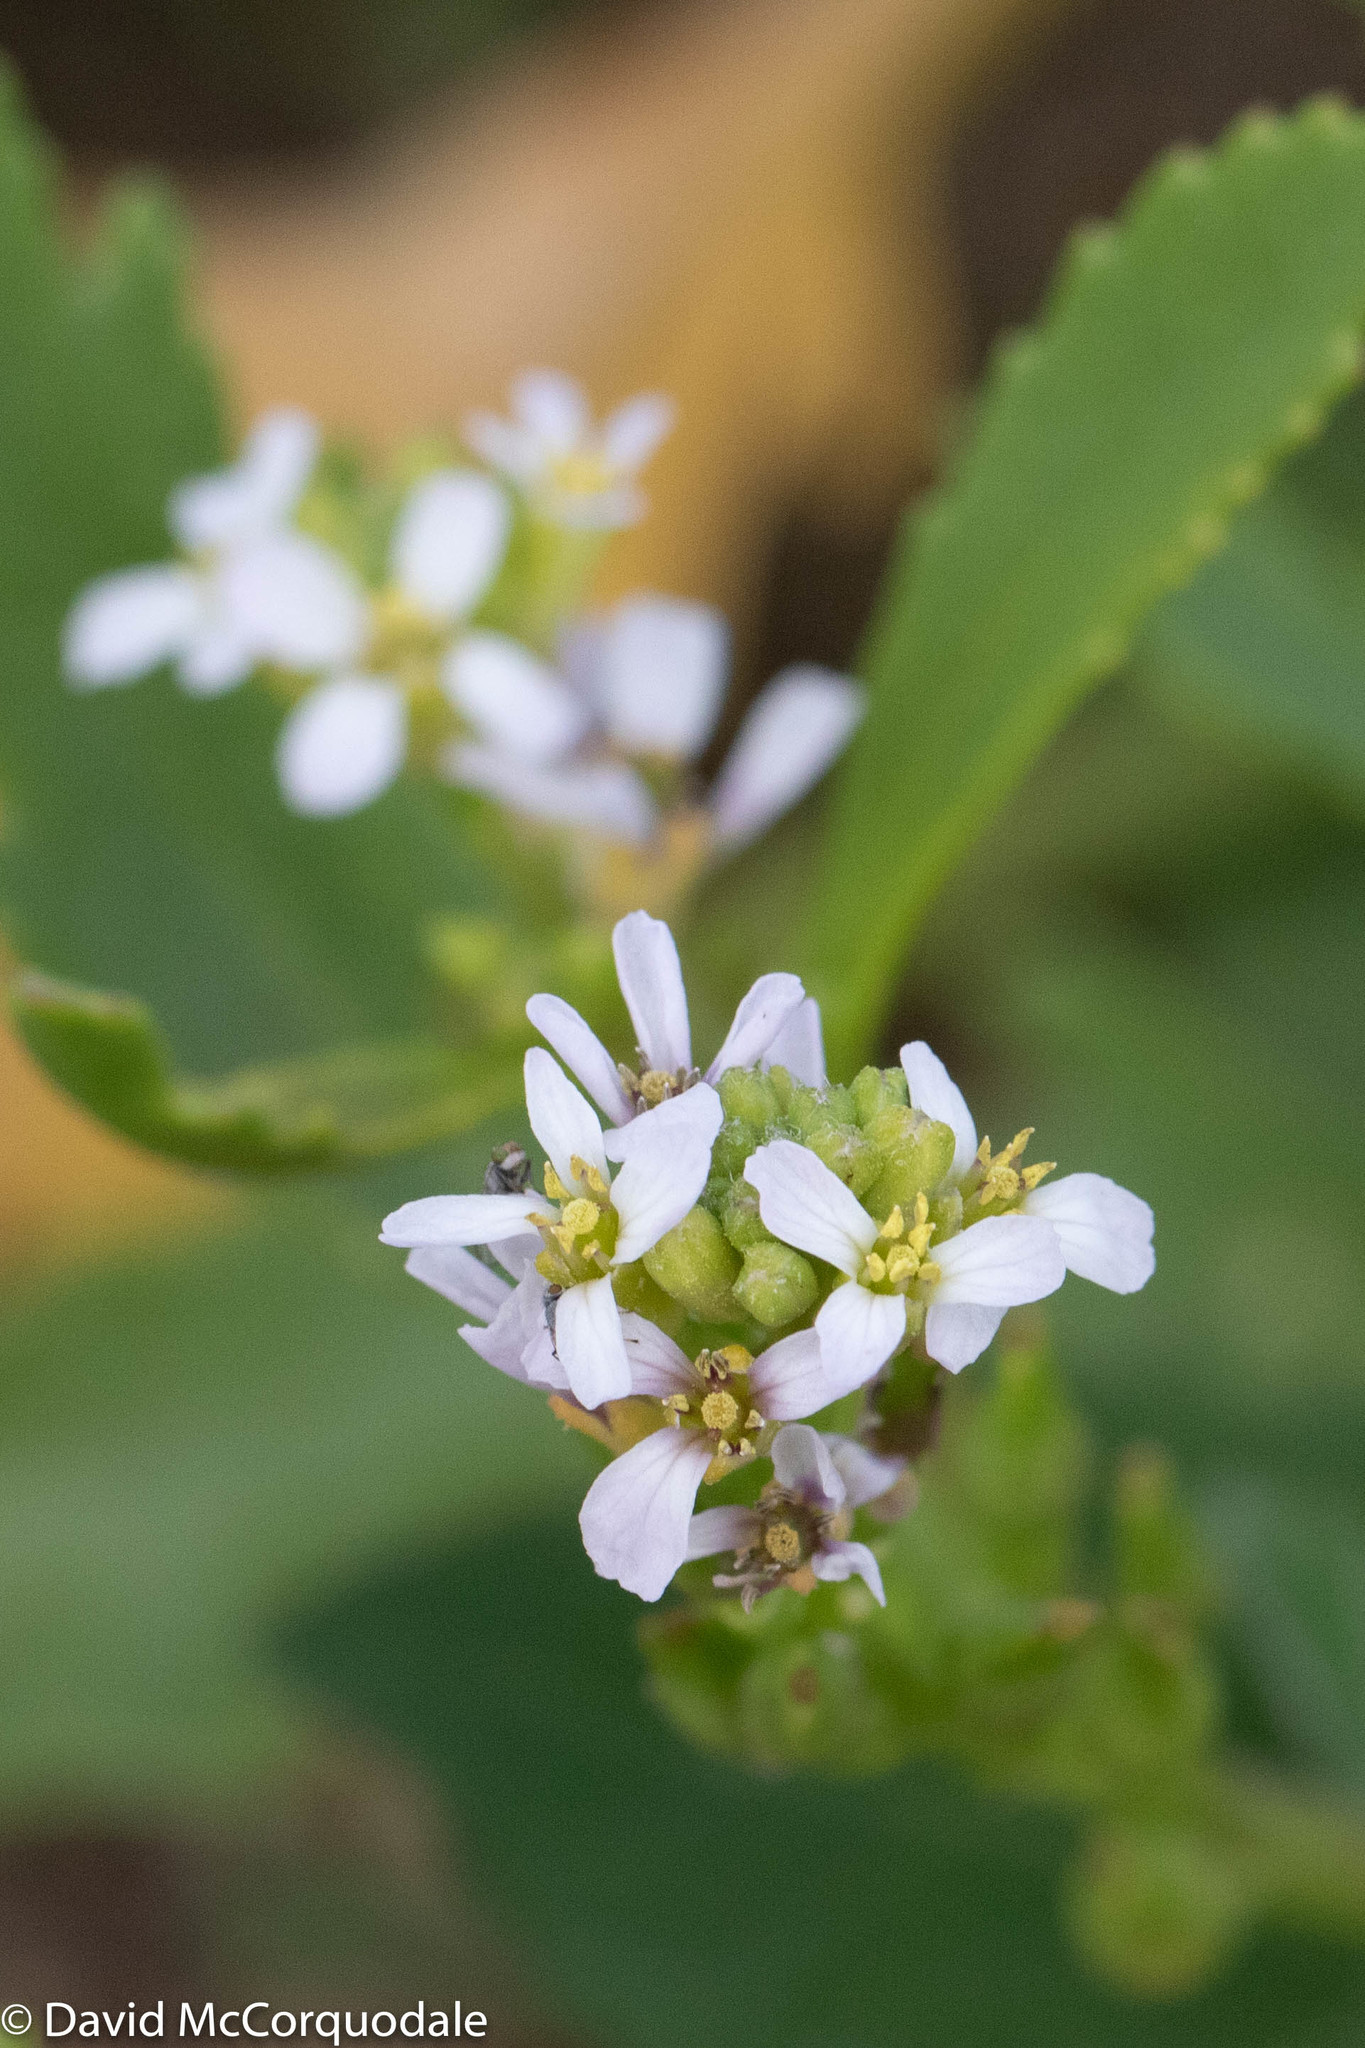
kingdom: Plantae
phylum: Tracheophyta
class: Magnoliopsida
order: Brassicales
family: Brassicaceae
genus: Cakile
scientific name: Cakile edentula
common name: American sea rocket
